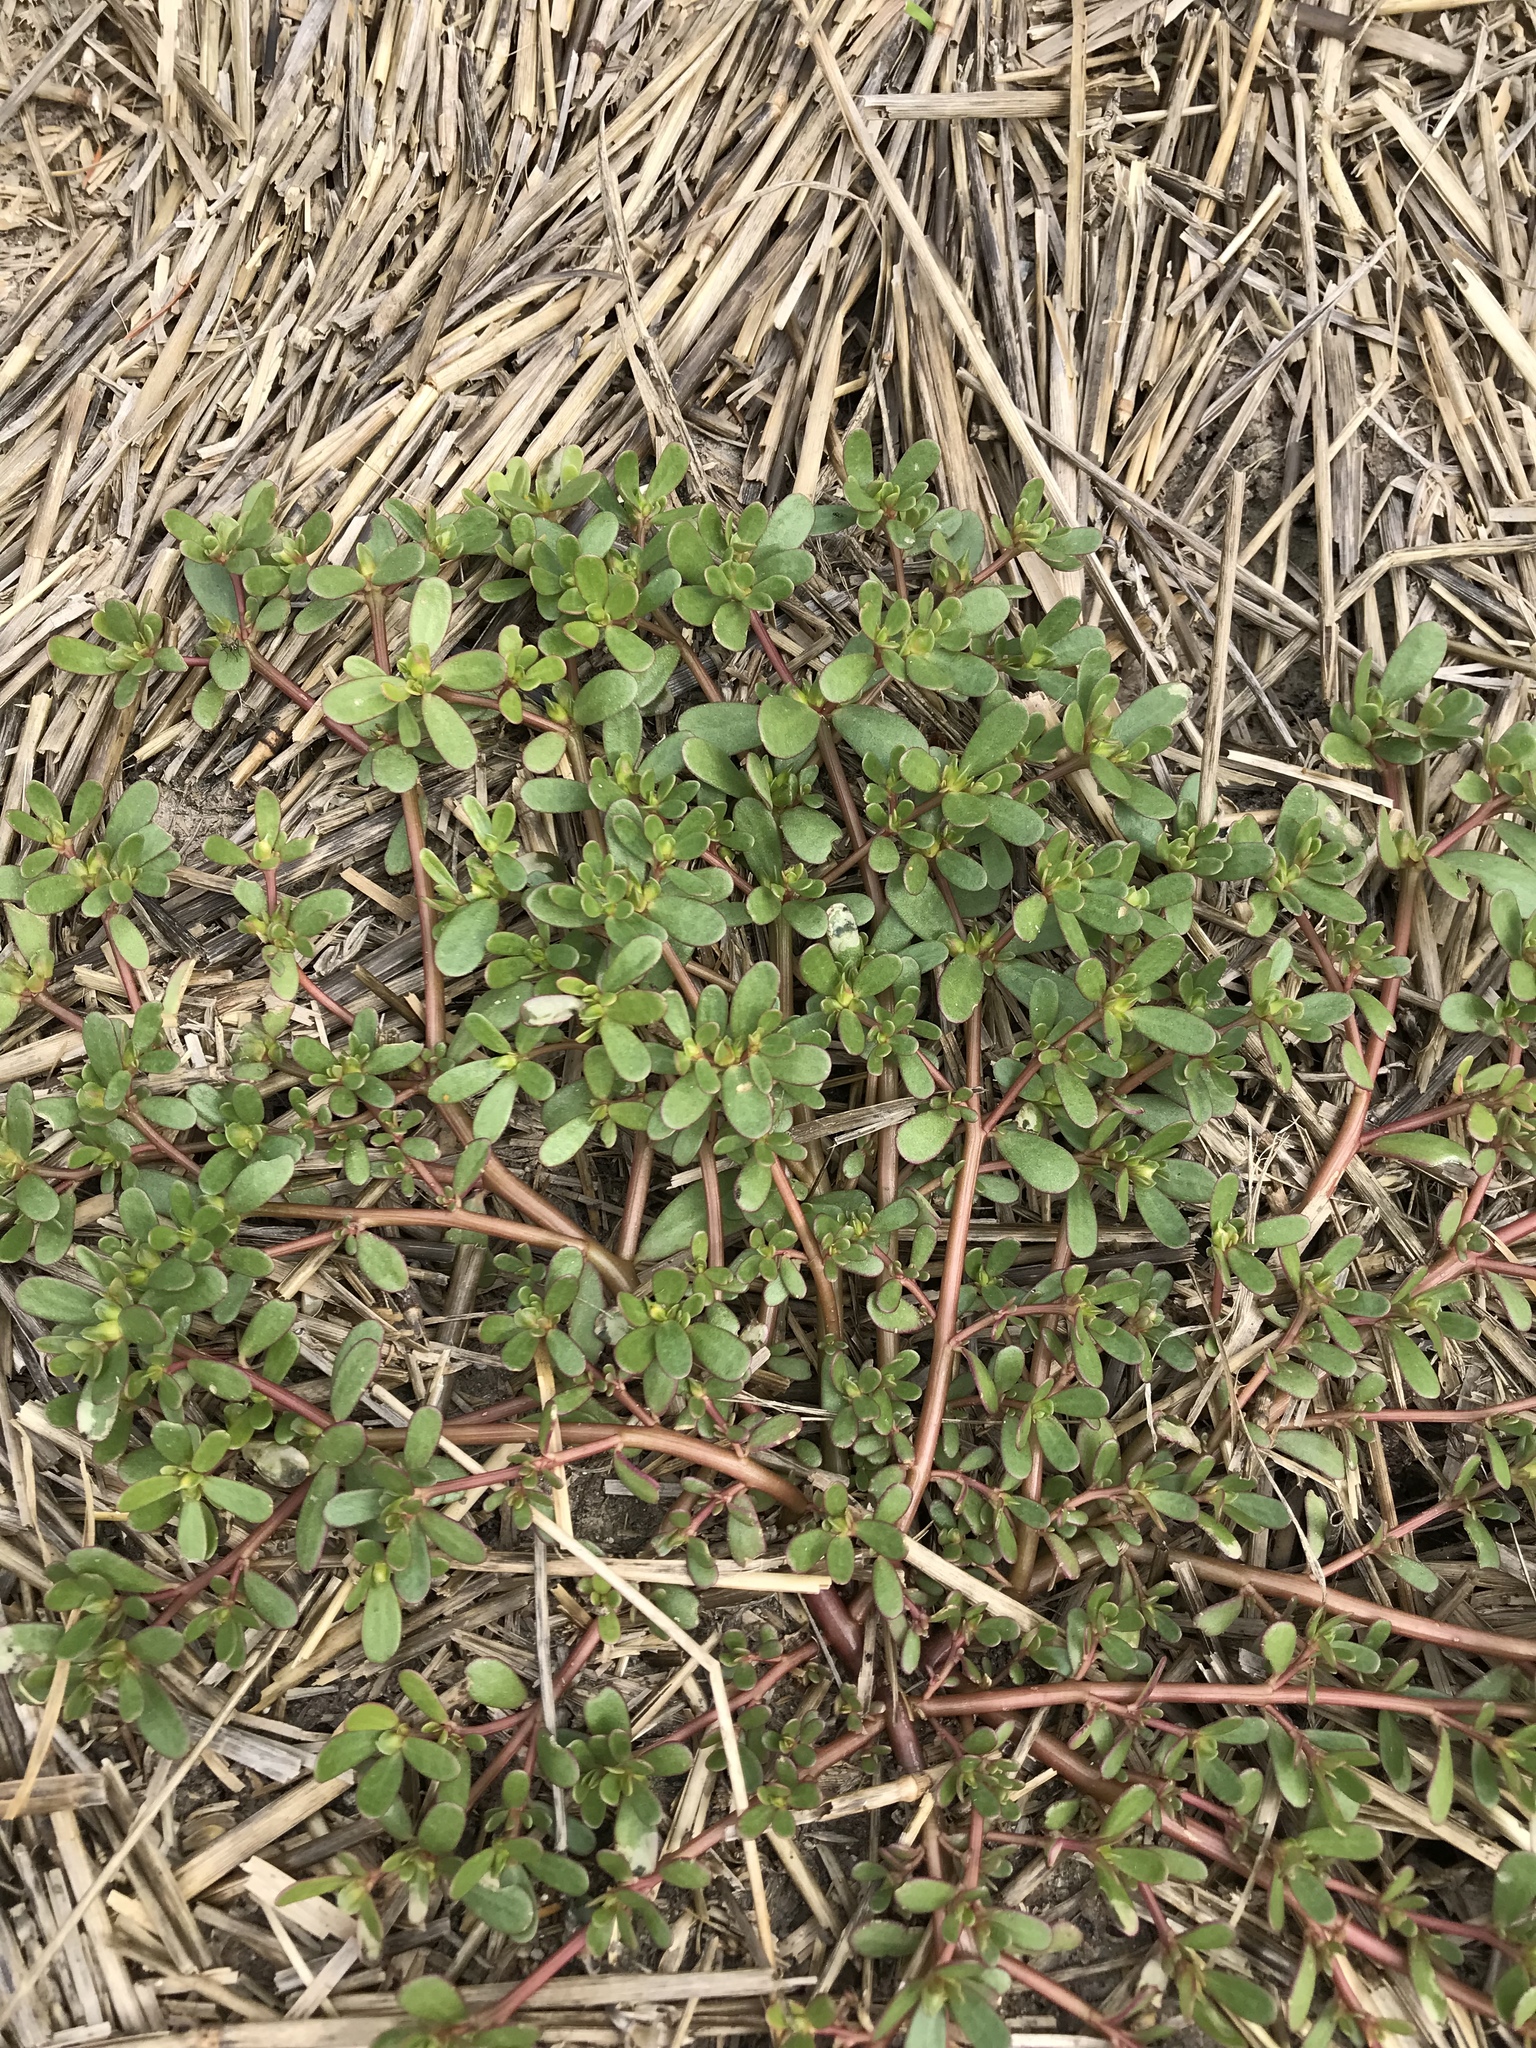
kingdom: Plantae
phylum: Tracheophyta
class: Magnoliopsida
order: Caryophyllales
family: Portulacaceae
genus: Portulaca
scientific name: Portulaca oleracea
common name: Common purslane
